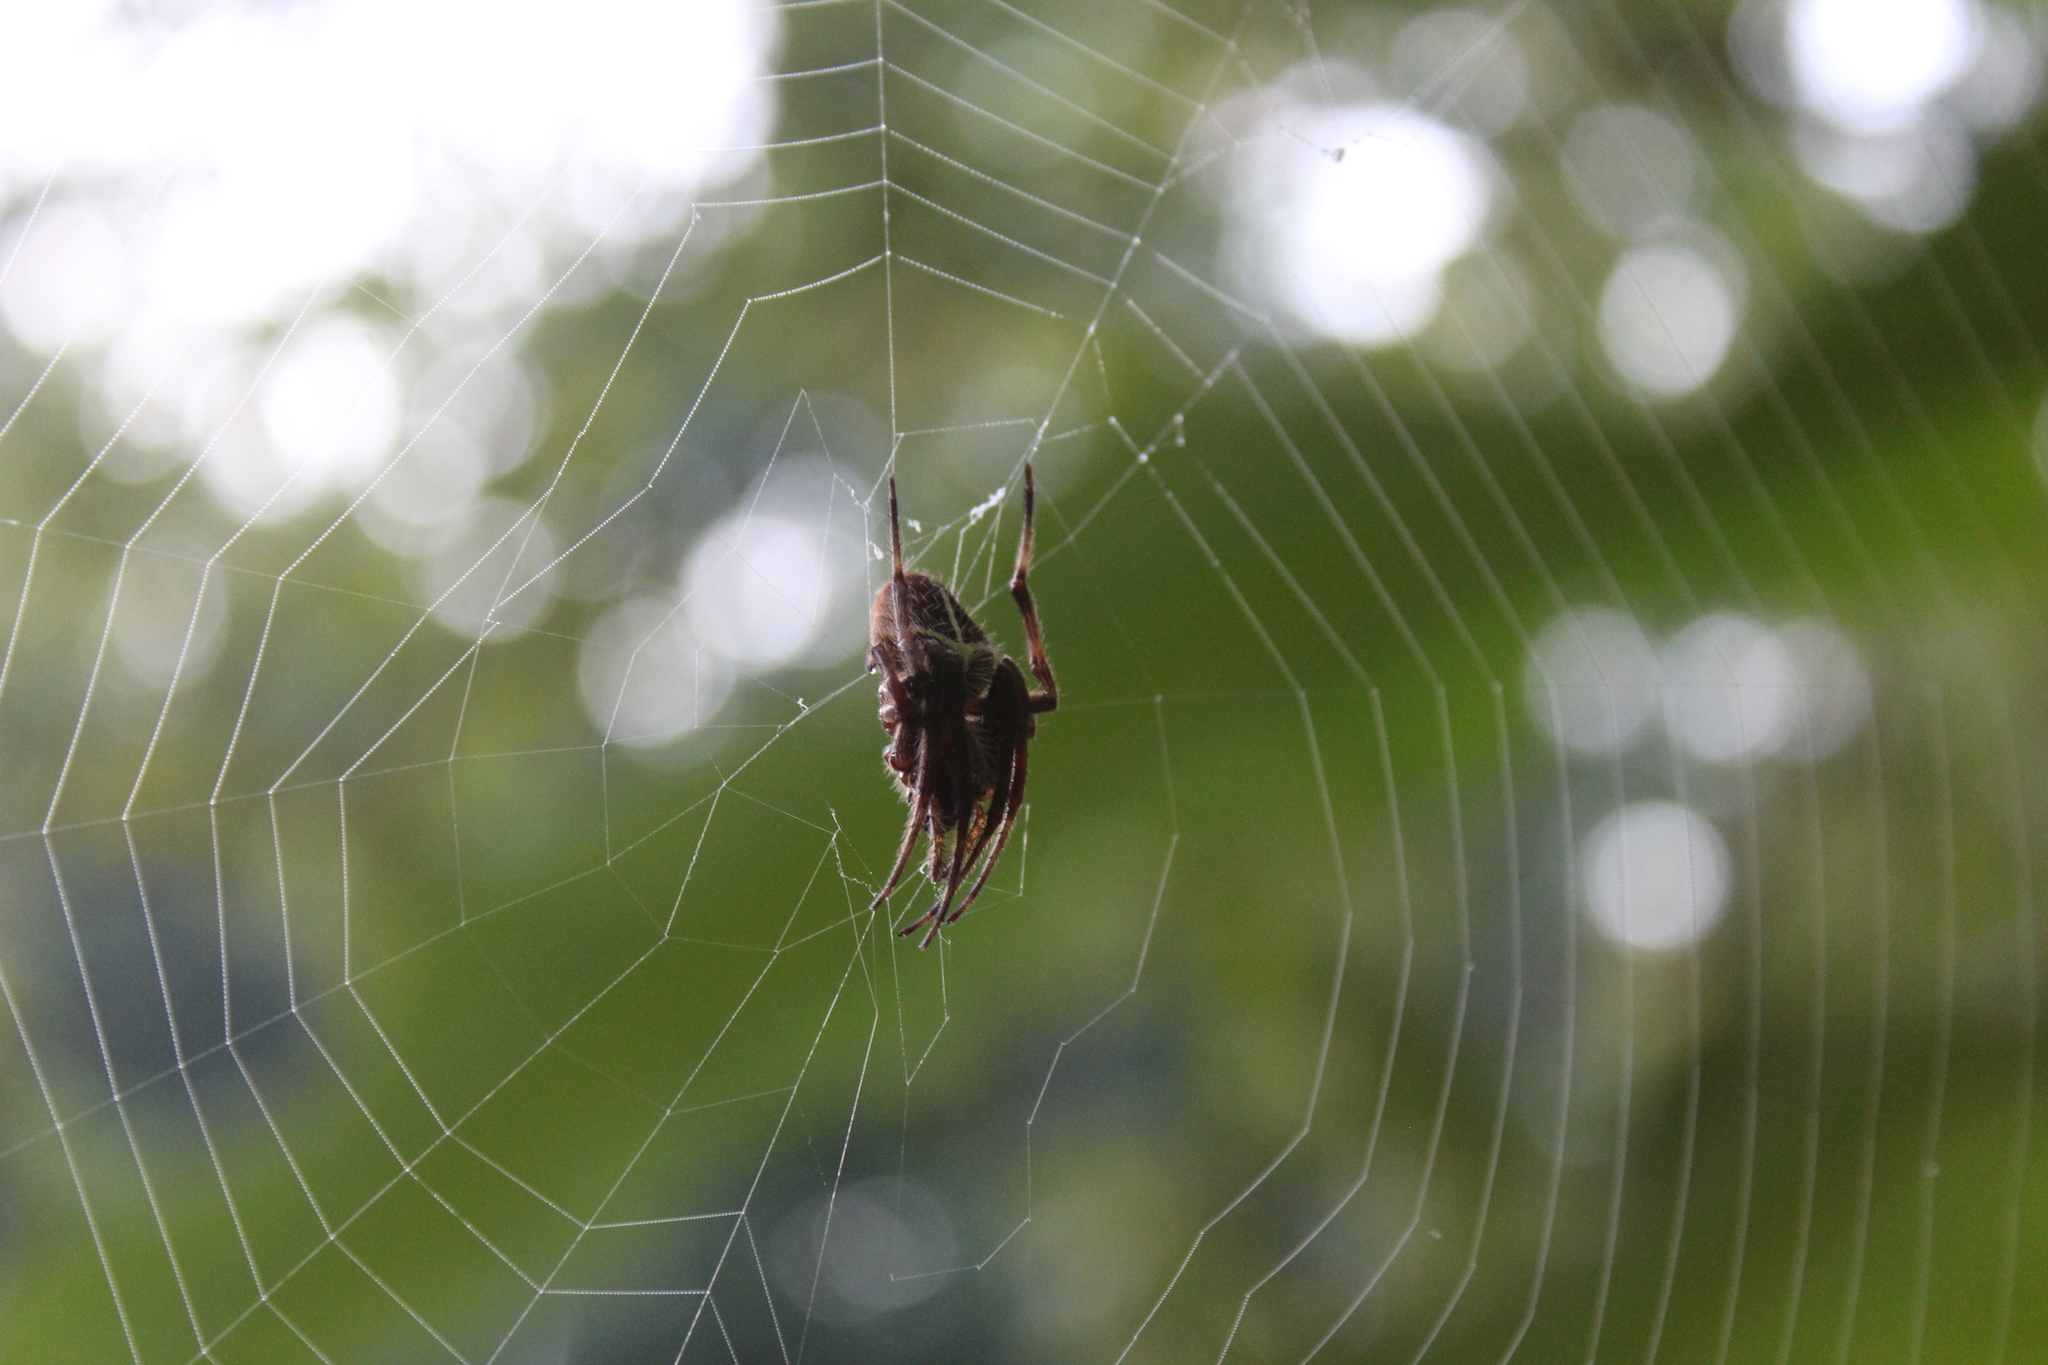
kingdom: Animalia
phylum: Arthropoda
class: Arachnida
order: Araneae
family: Araneidae
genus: Eriophora
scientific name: Eriophora ravilla
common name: Orb weavers
